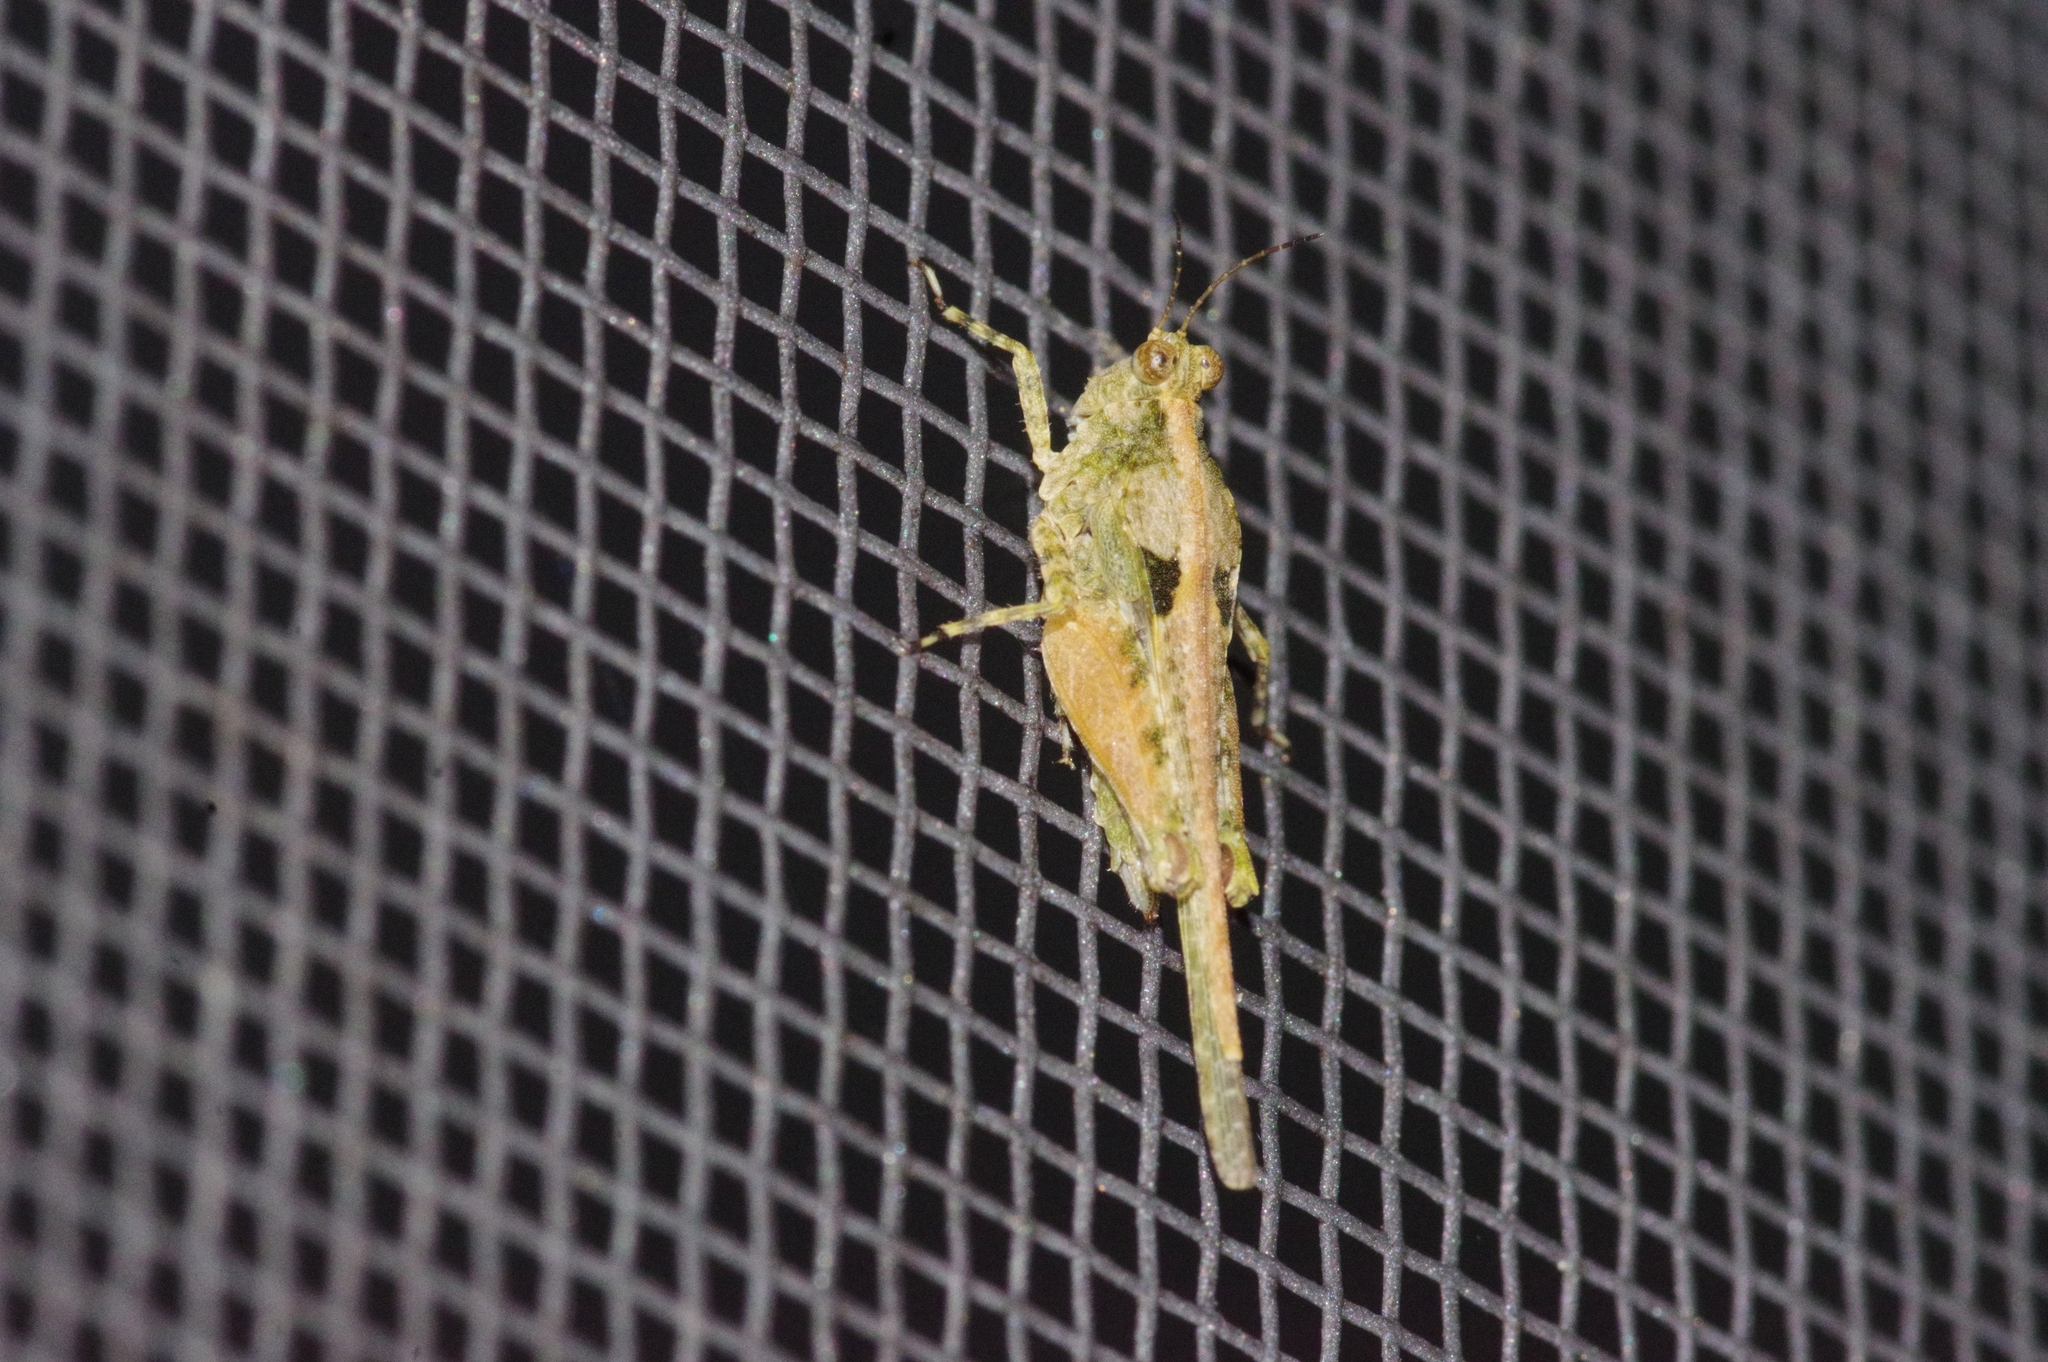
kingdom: Animalia
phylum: Arthropoda
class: Insecta
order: Orthoptera
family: Tetrigidae
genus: Euparatettix
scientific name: Euparatettix tricarinatus
